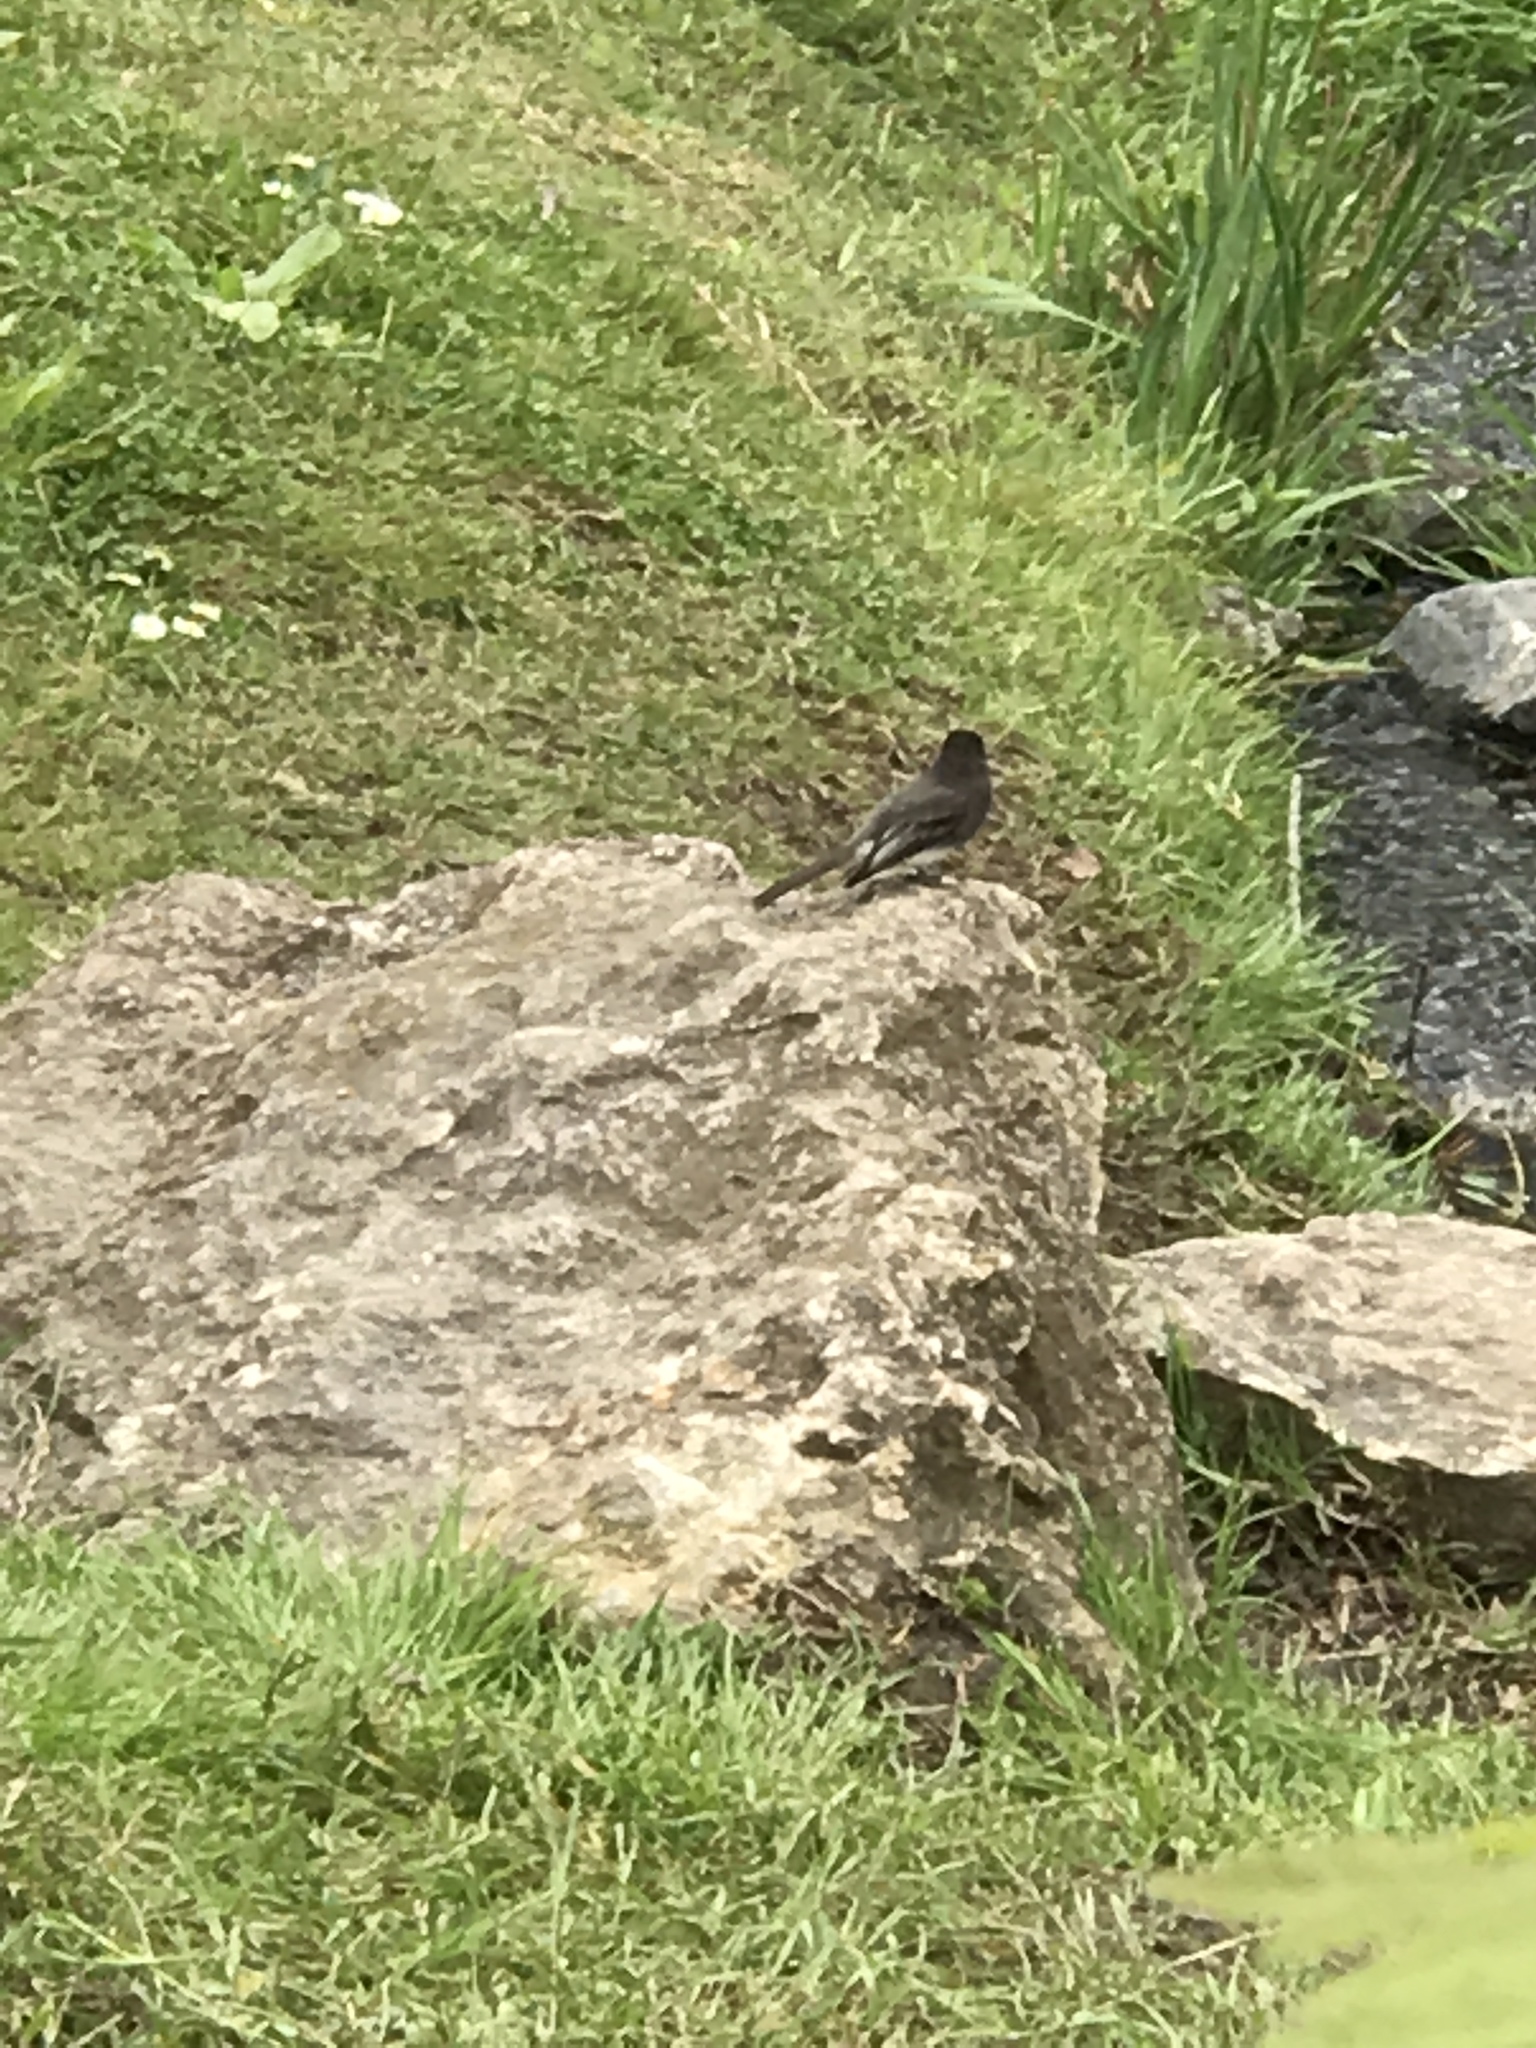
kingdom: Animalia
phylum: Chordata
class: Aves
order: Passeriformes
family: Tyrannidae
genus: Sayornis
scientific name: Sayornis nigricans
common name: Black phoebe
